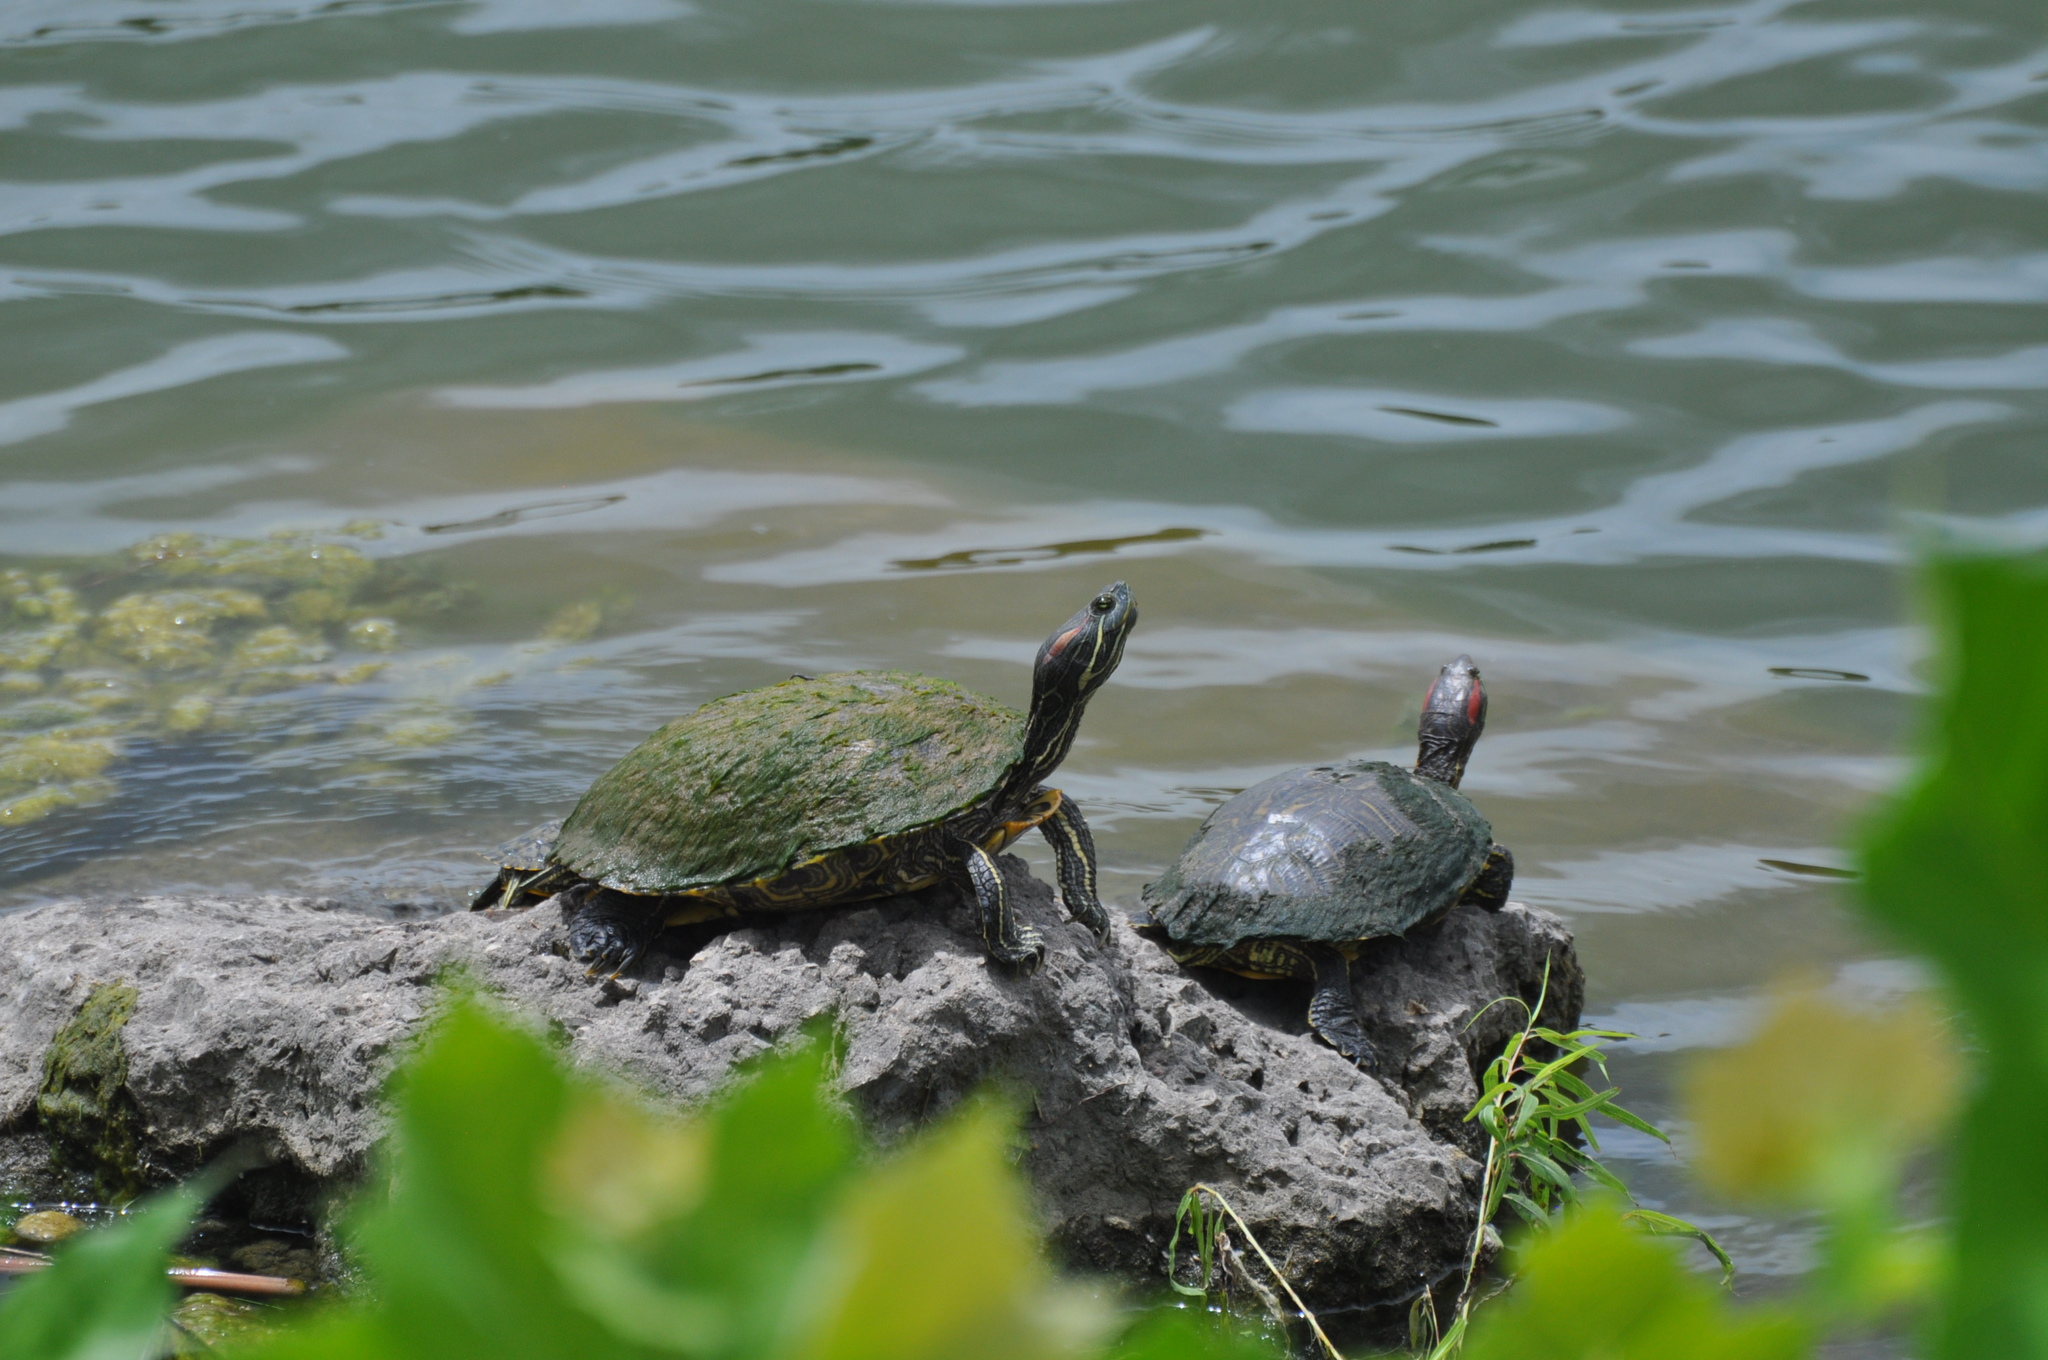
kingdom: Animalia
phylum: Chordata
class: Testudines
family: Emydidae
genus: Trachemys
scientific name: Trachemys scripta
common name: Slider
